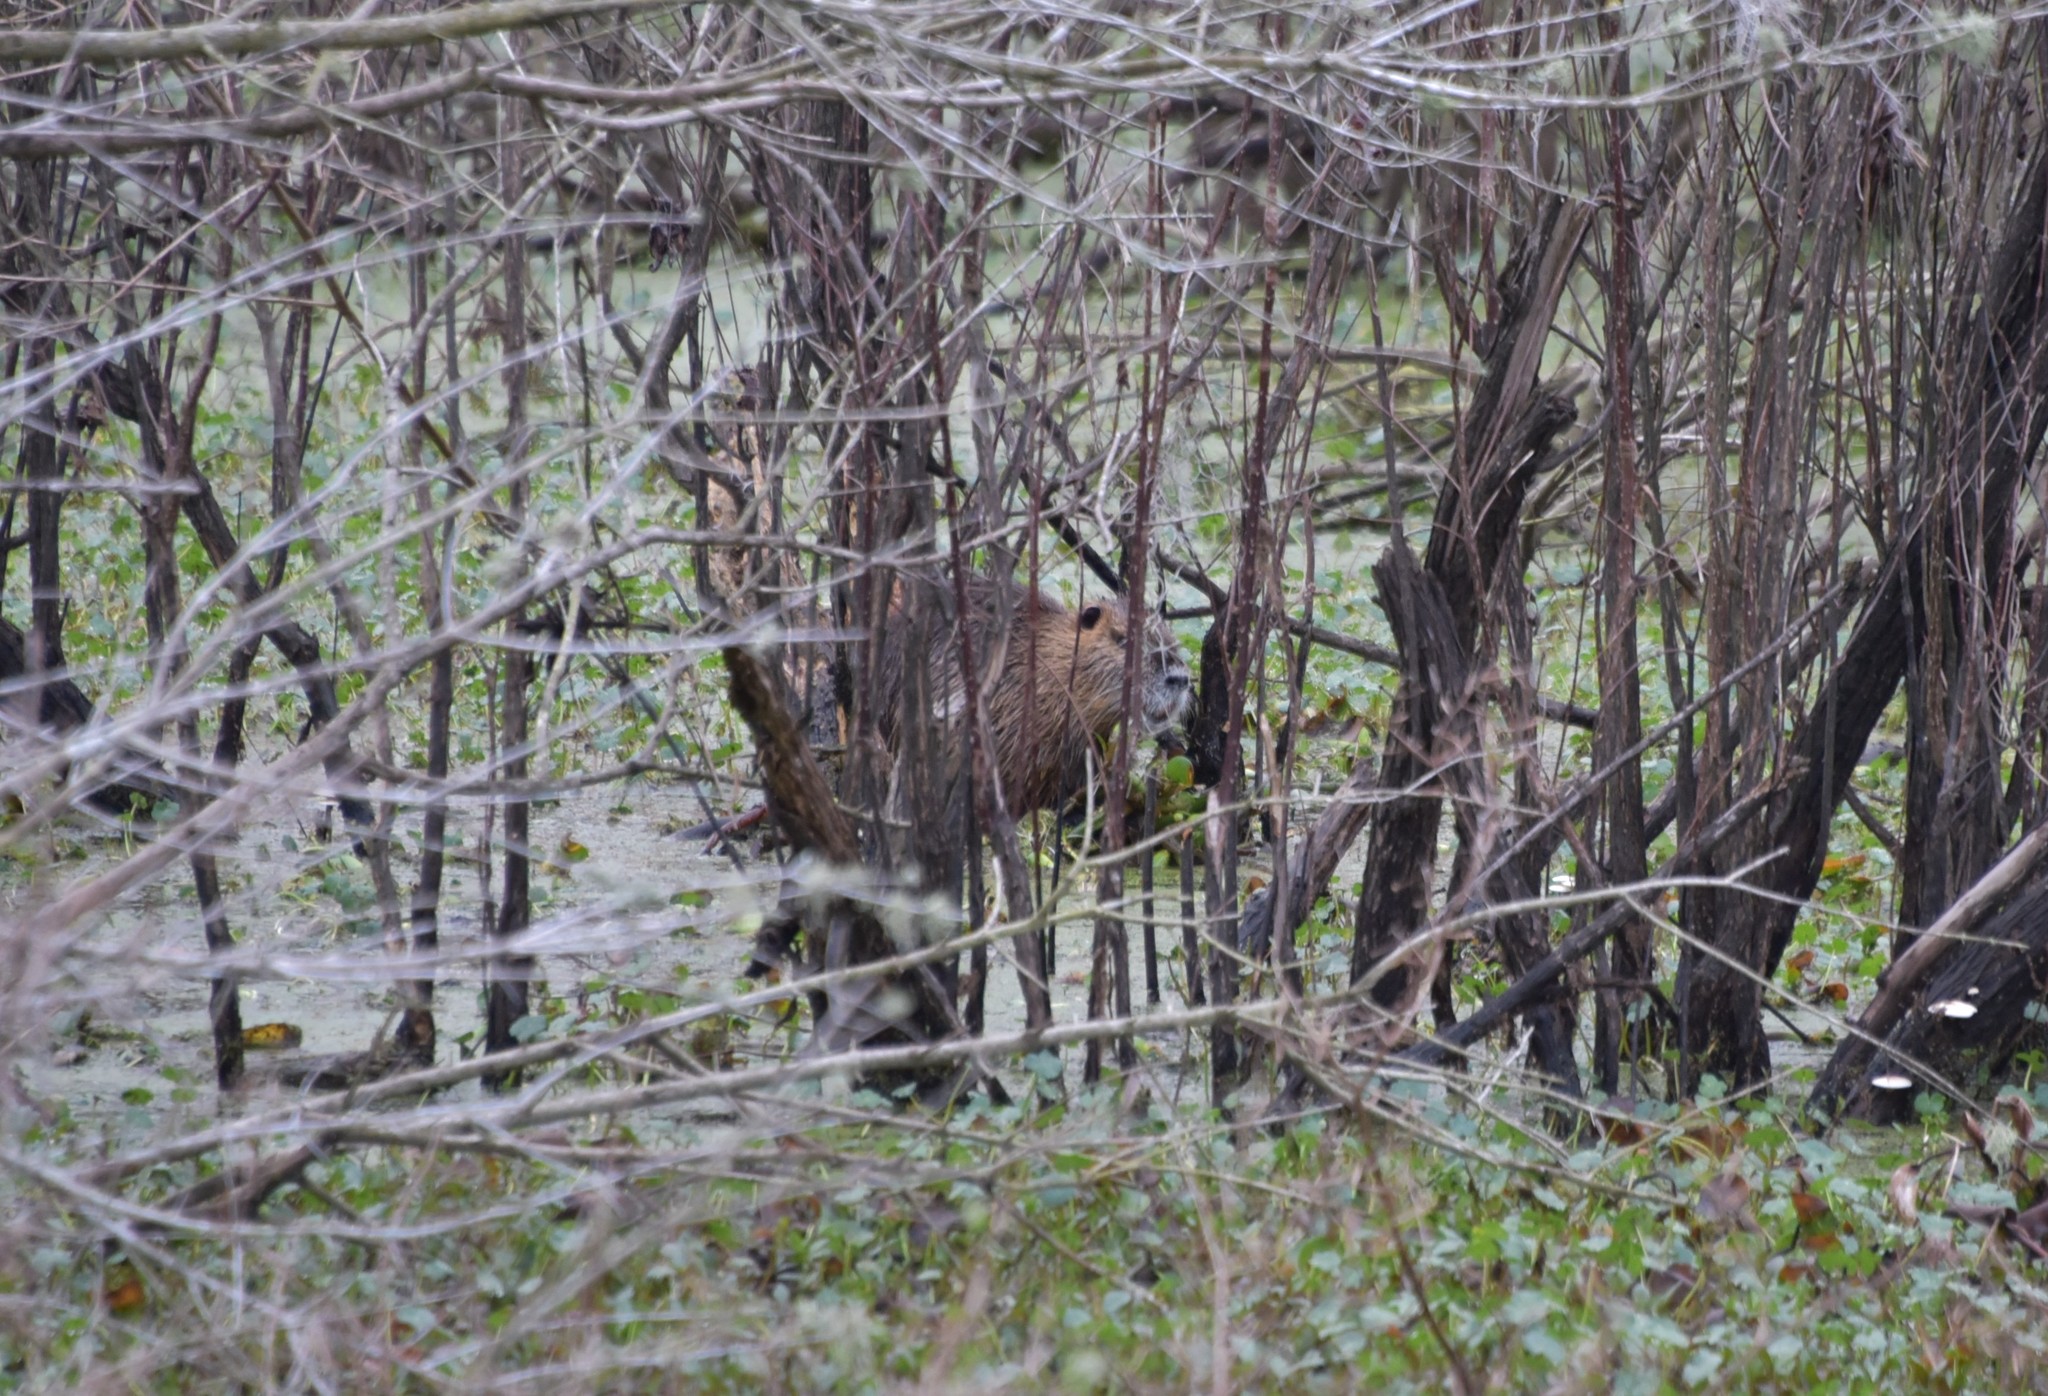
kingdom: Animalia
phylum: Chordata
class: Mammalia
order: Rodentia
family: Myocastoridae
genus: Myocastor
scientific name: Myocastor coypus
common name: Coypu
